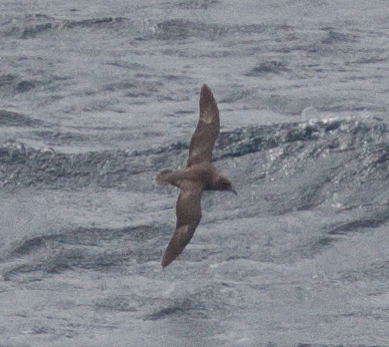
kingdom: Animalia
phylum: Chordata
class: Aves
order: Procellariiformes
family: Procellariidae
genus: Fulmarus
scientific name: Fulmarus glacialis
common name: Northern fulmar
